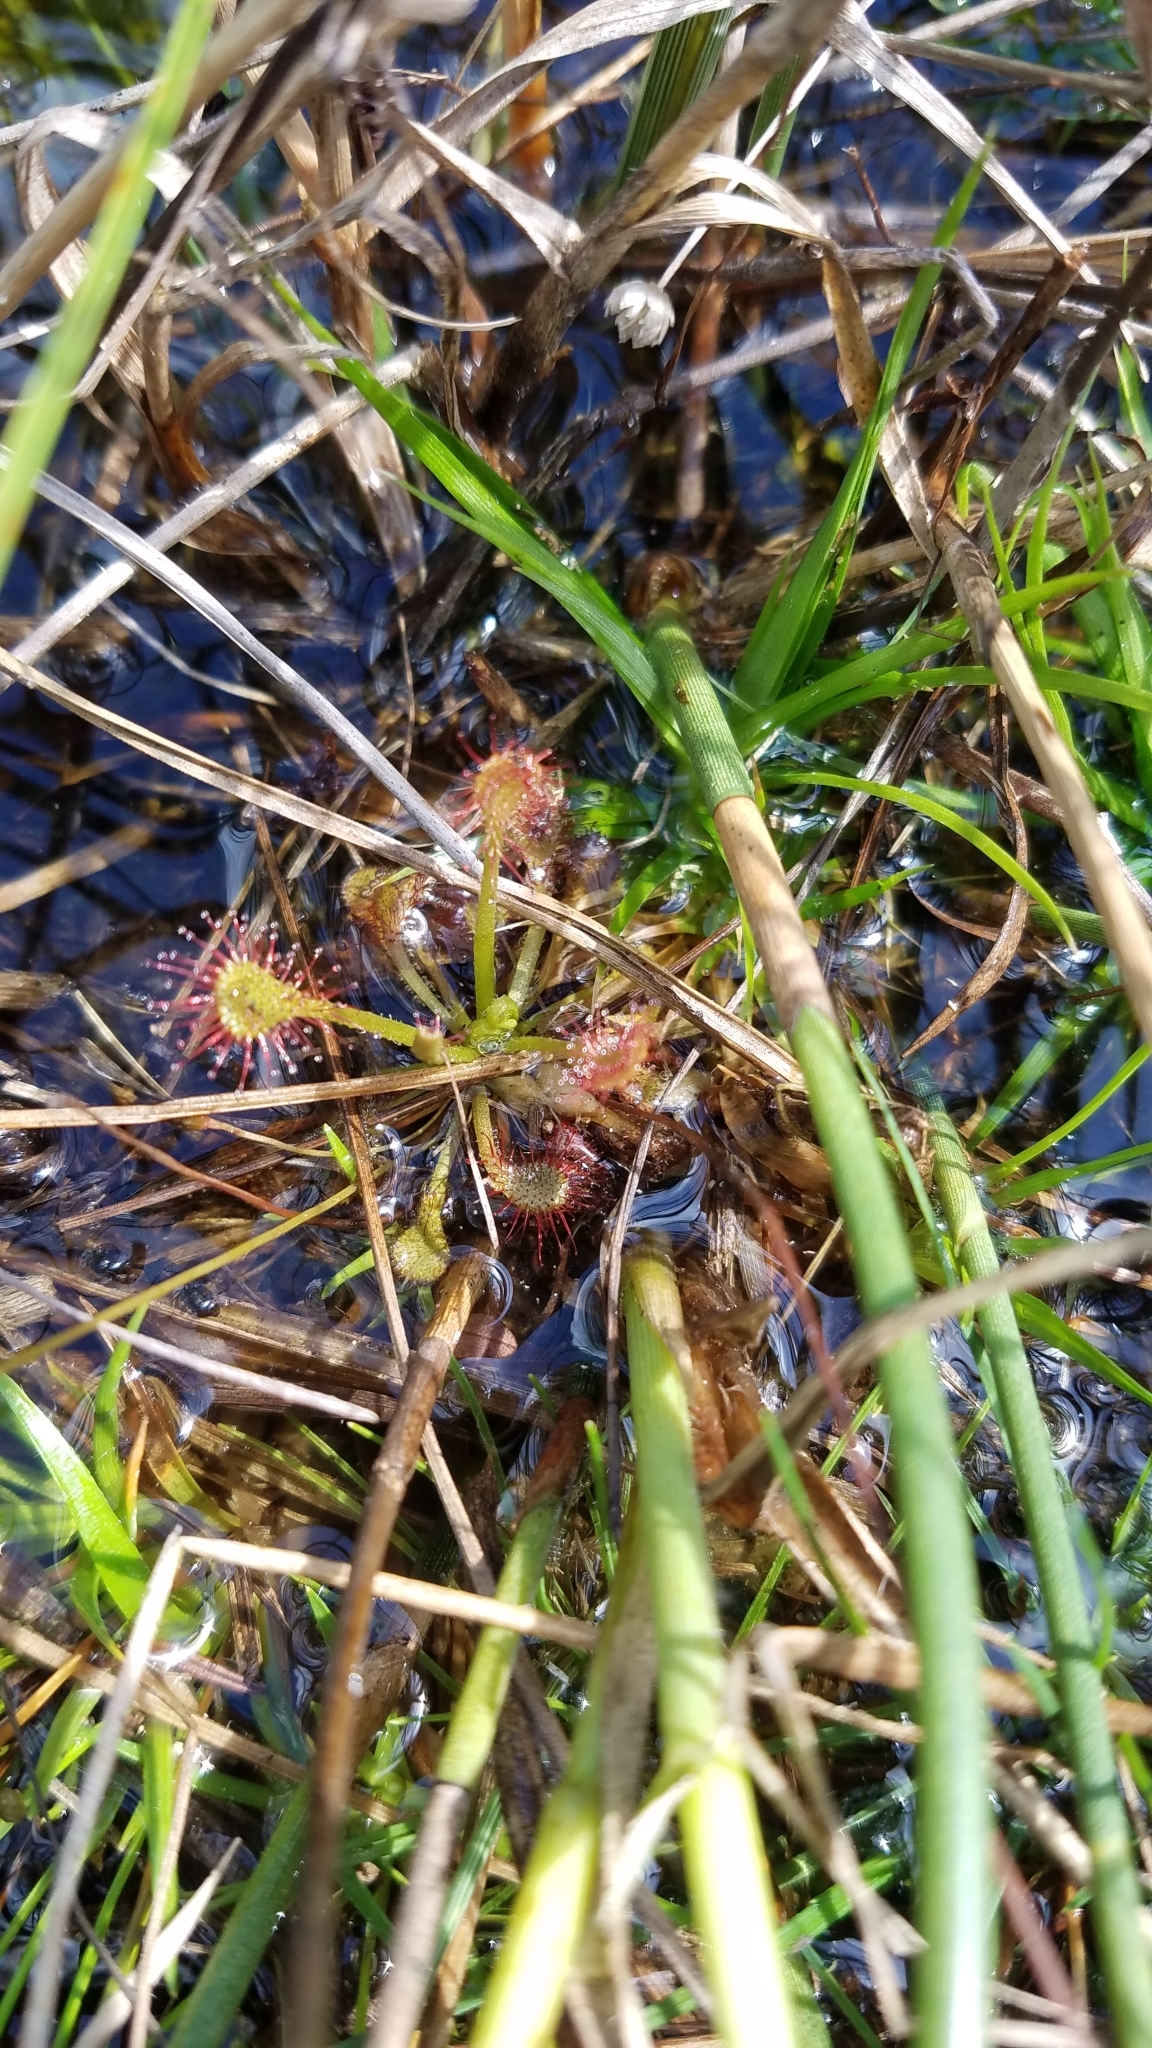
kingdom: Plantae
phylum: Tracheophyta
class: Magnoliopsida
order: Caryophyllales
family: Droseraceae
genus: Drosera
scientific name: Drosera capillaris
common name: Pink sundew
